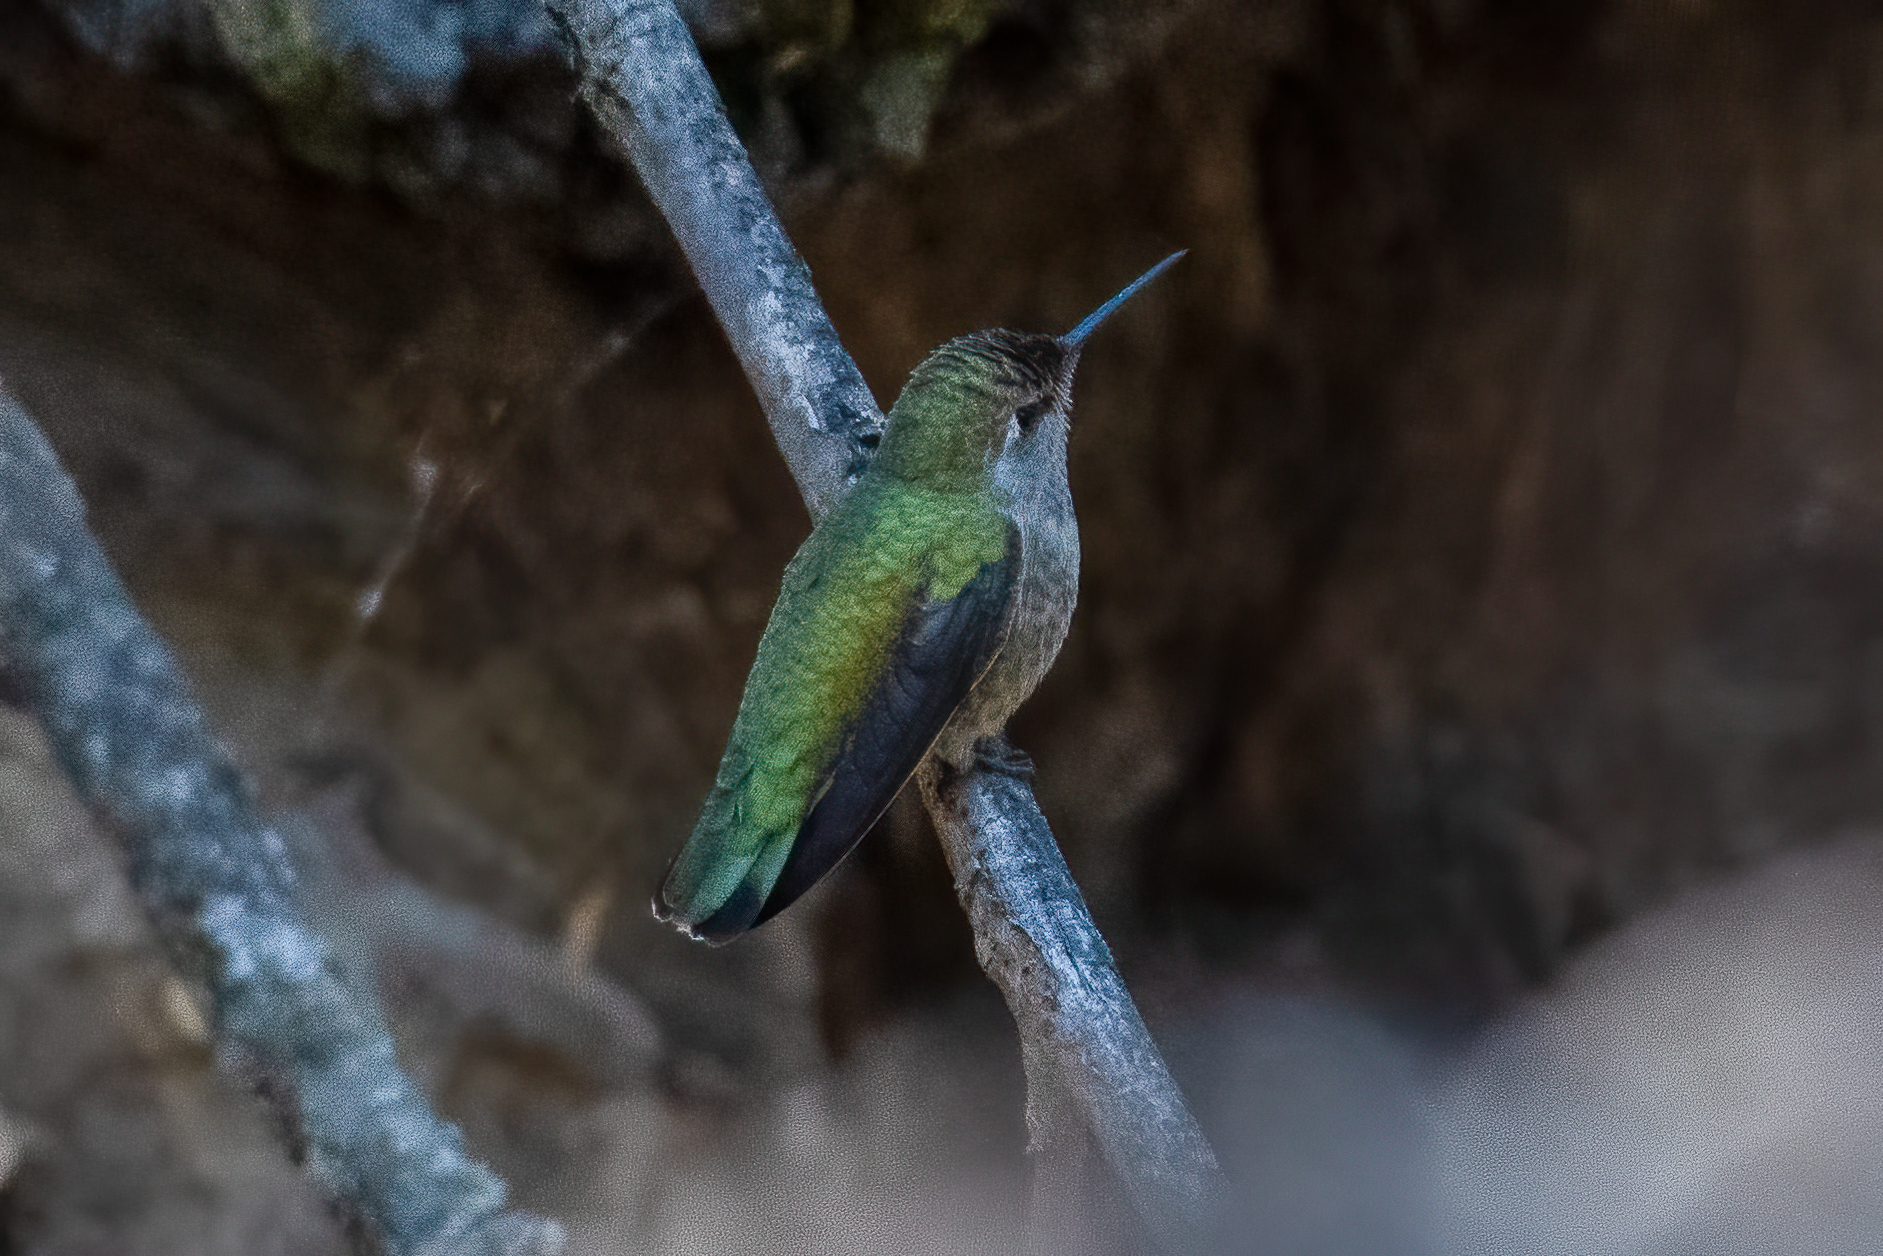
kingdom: Animalia
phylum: Chordata
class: Aves
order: Apodiformes
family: Trochilidae
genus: Calypte
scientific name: Calypte anna
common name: Anna's hummingbird
